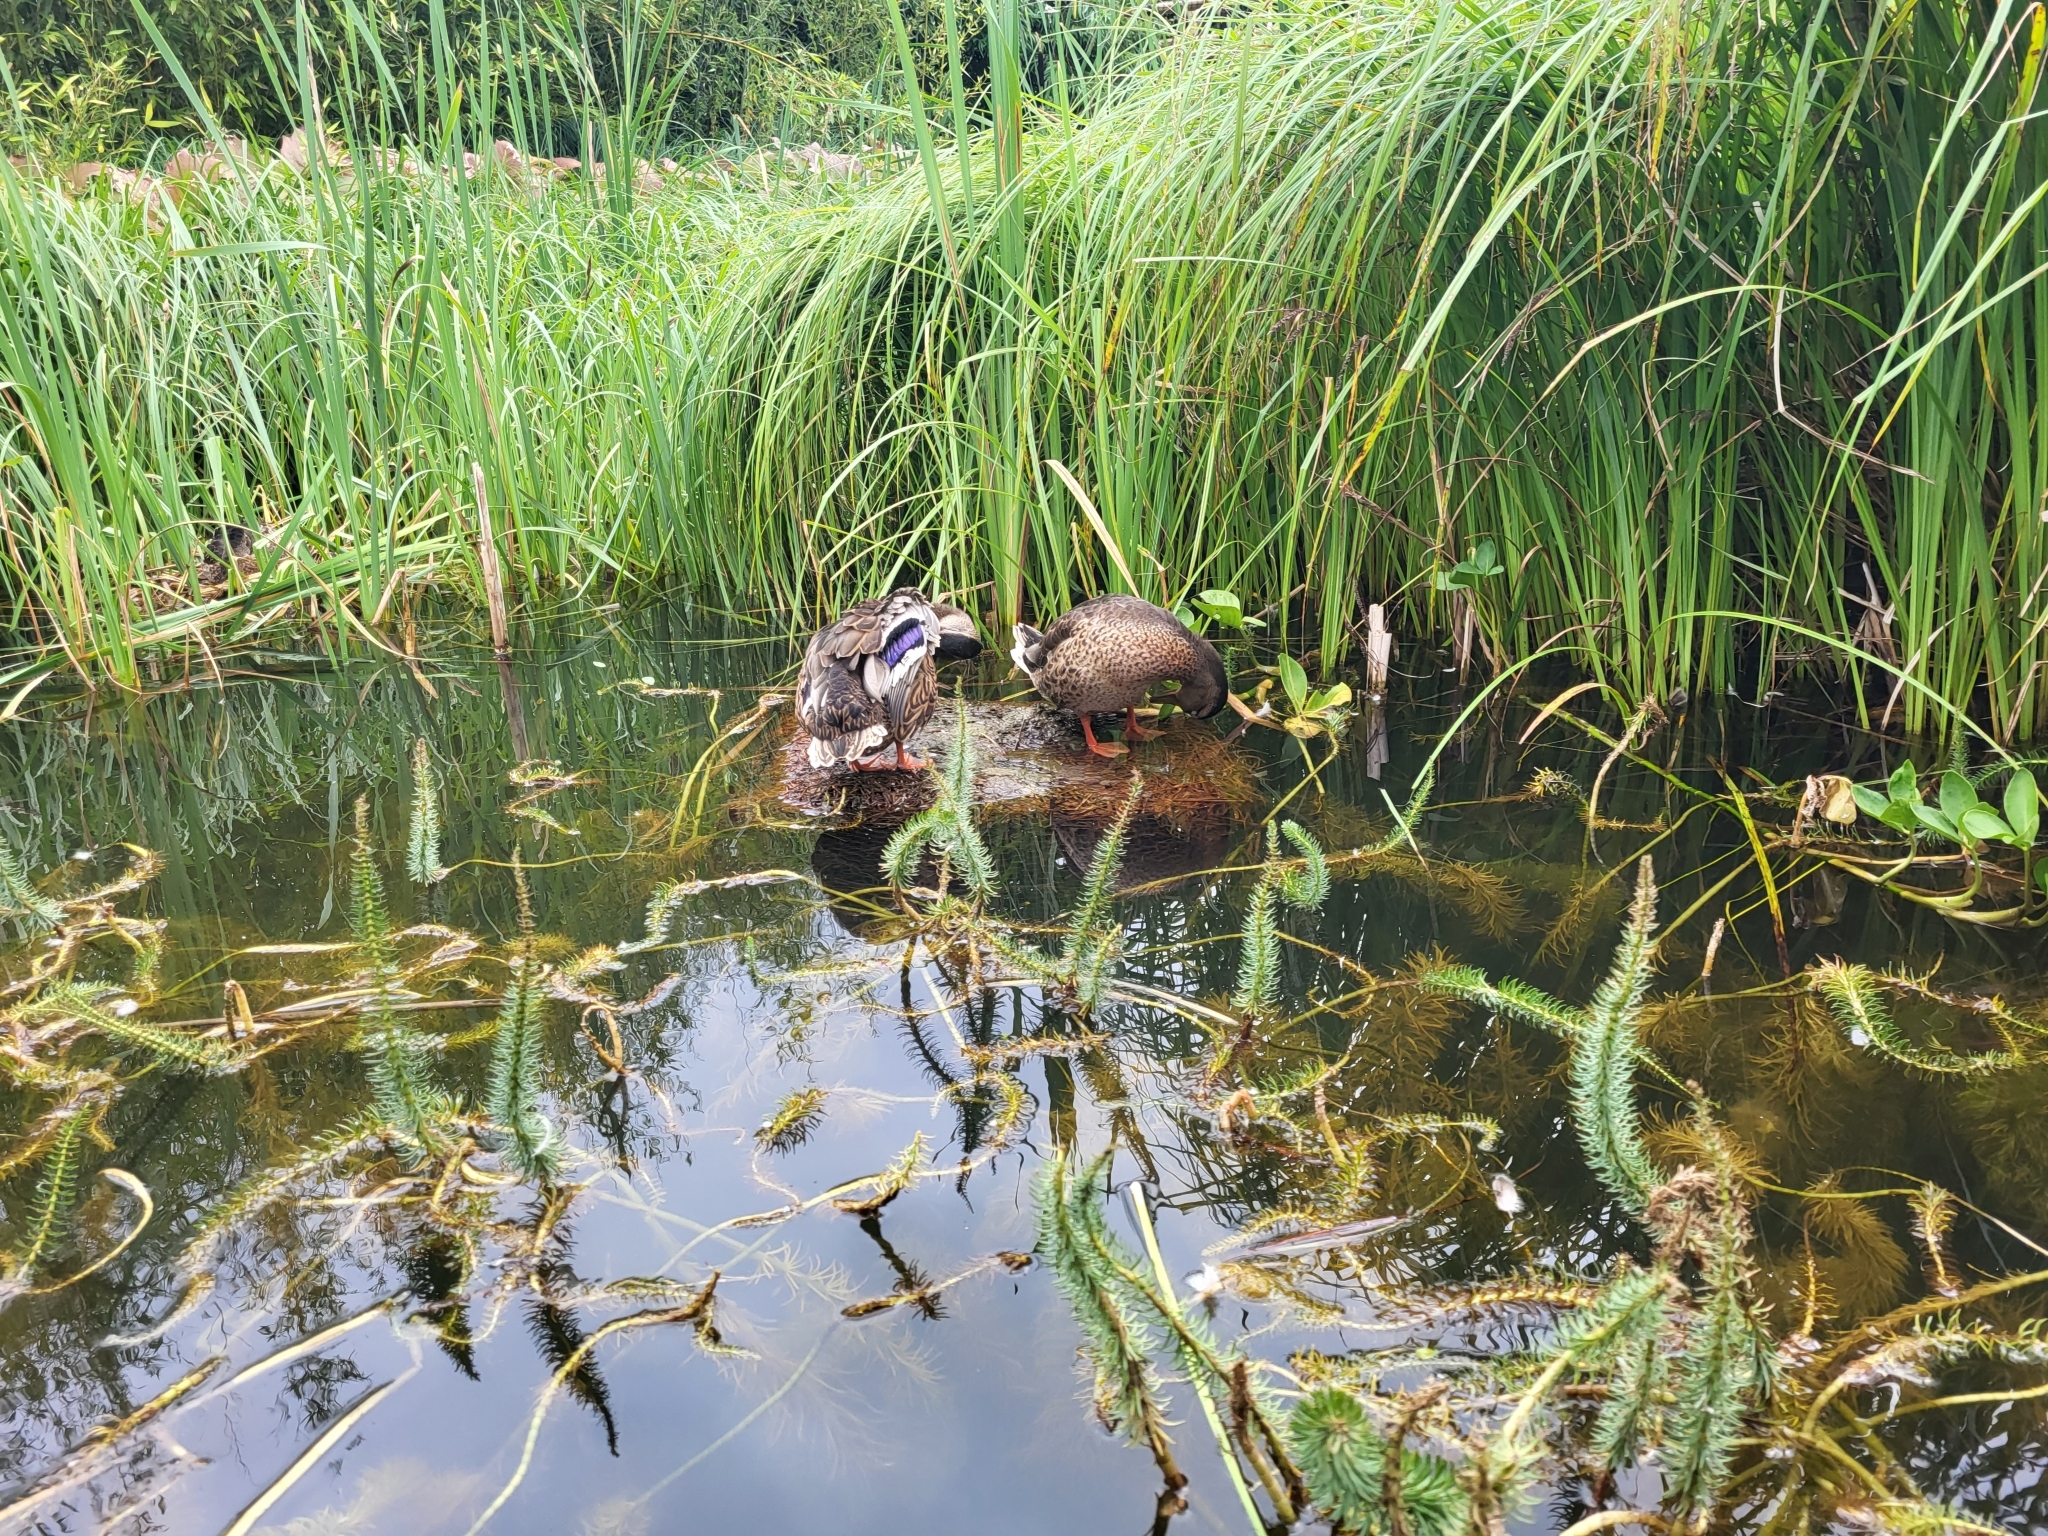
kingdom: Animalia
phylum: Chordata
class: Aves
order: Anseriformes
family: Anatidae
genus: Anas
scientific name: Anas platyrhynchos
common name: Mallard
